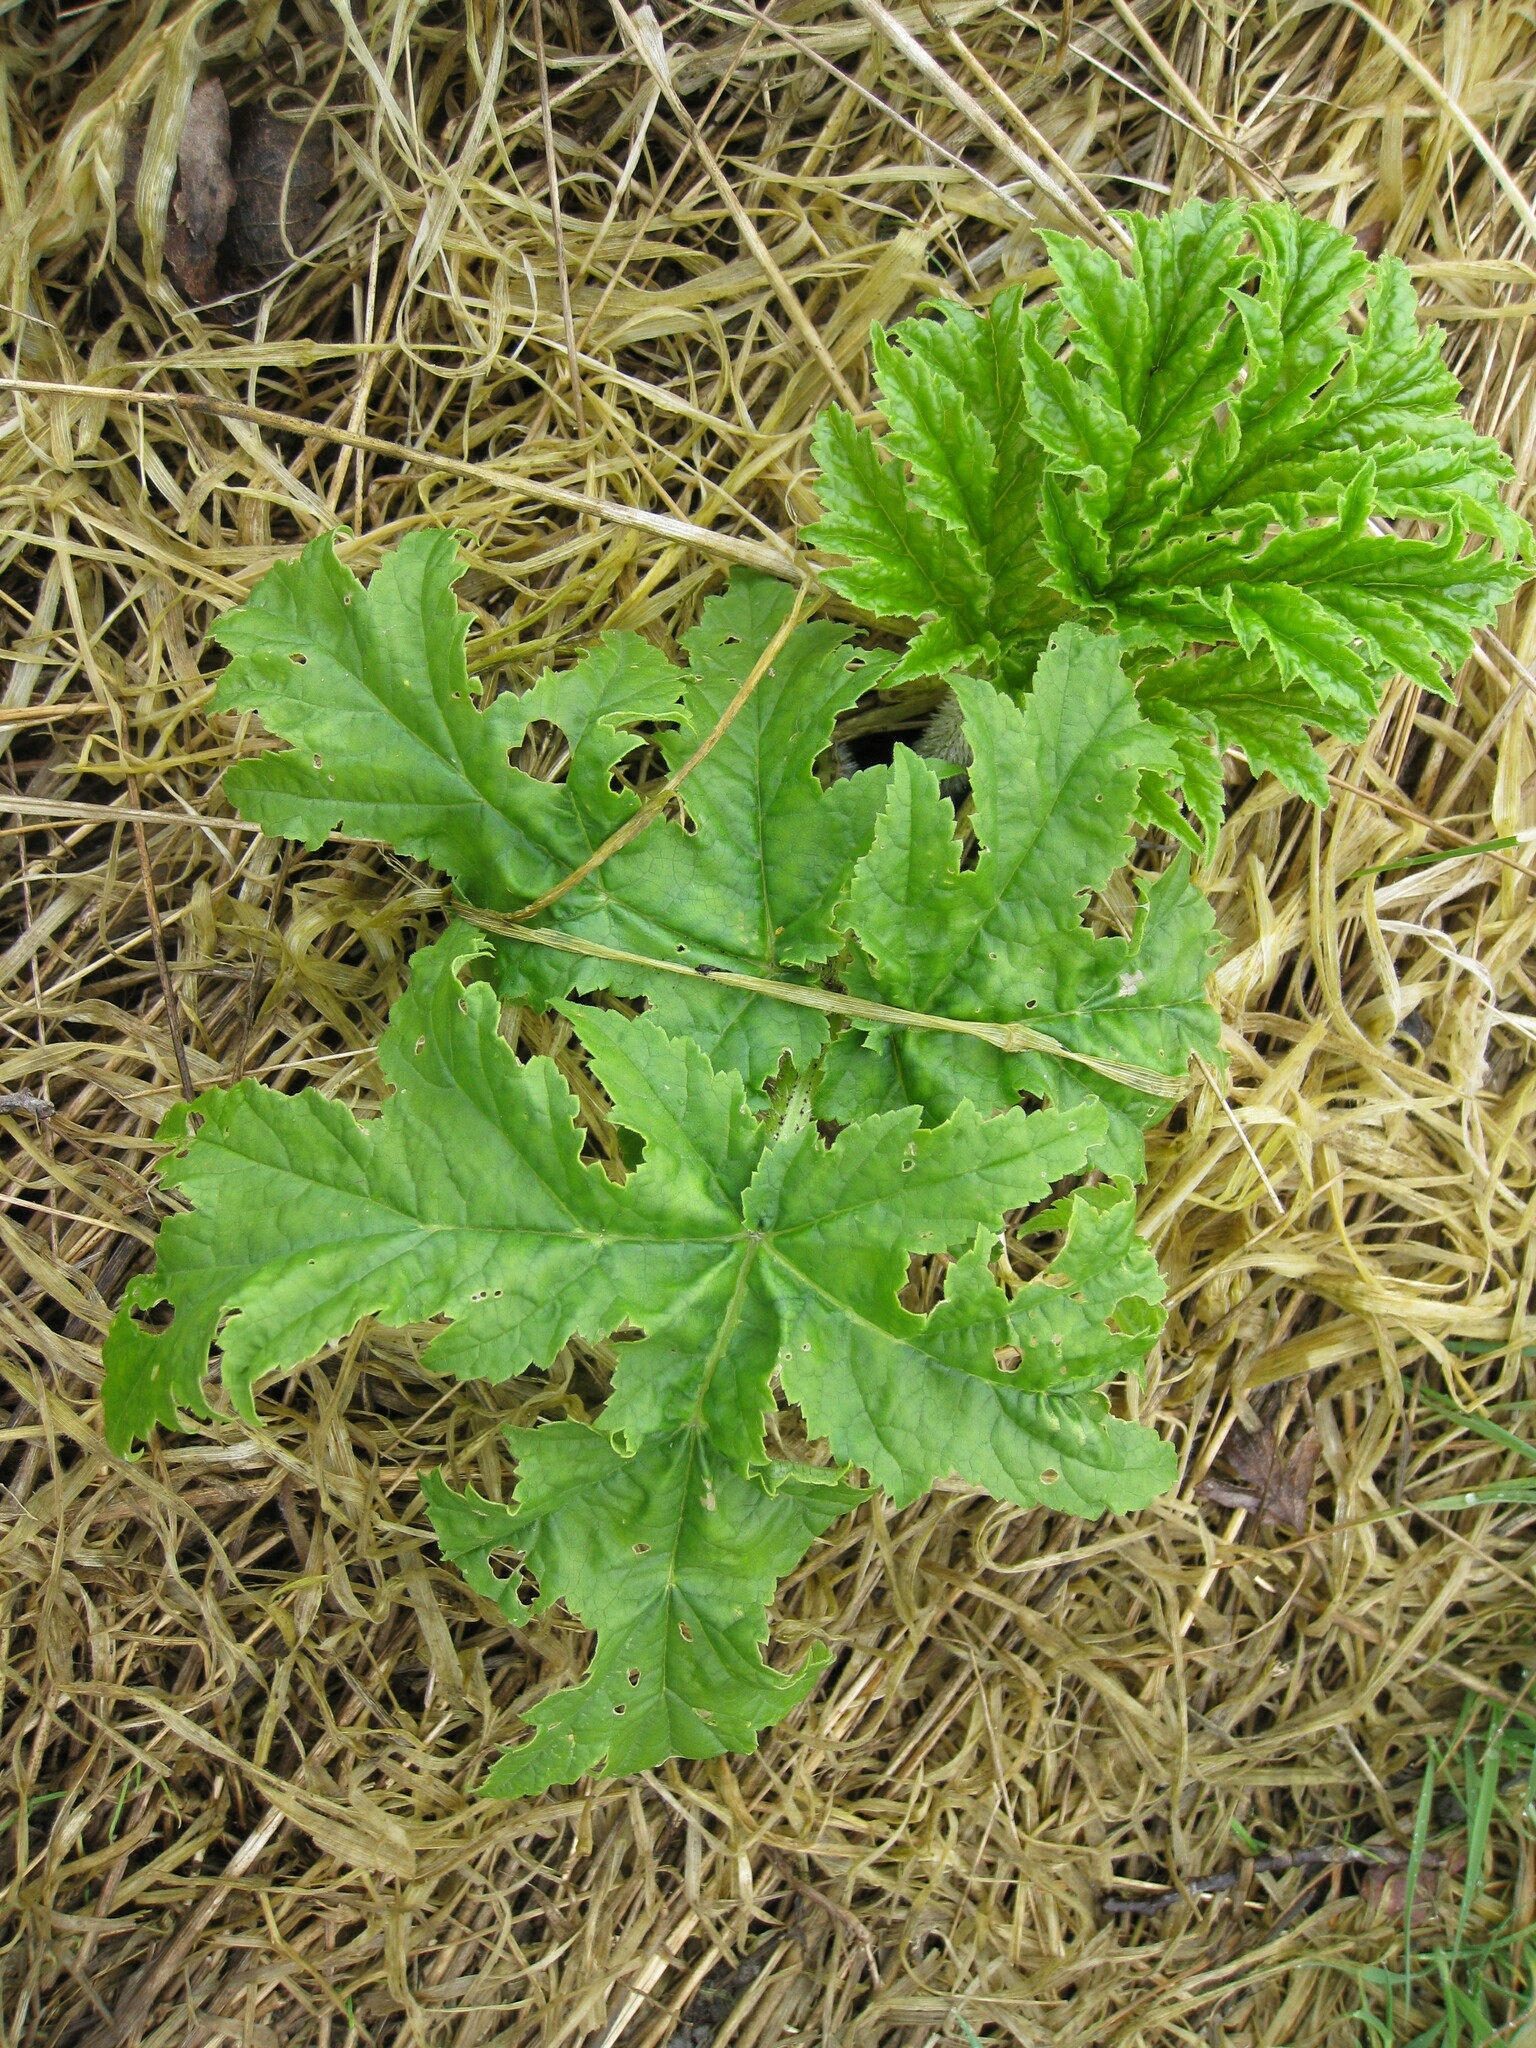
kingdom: Plantae
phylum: Tracheophyta
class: Magnoliopsida
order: Apiales
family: Apiaceae
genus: Heracleum
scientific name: Heracleum mantegazzianum
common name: Giant hogweed
